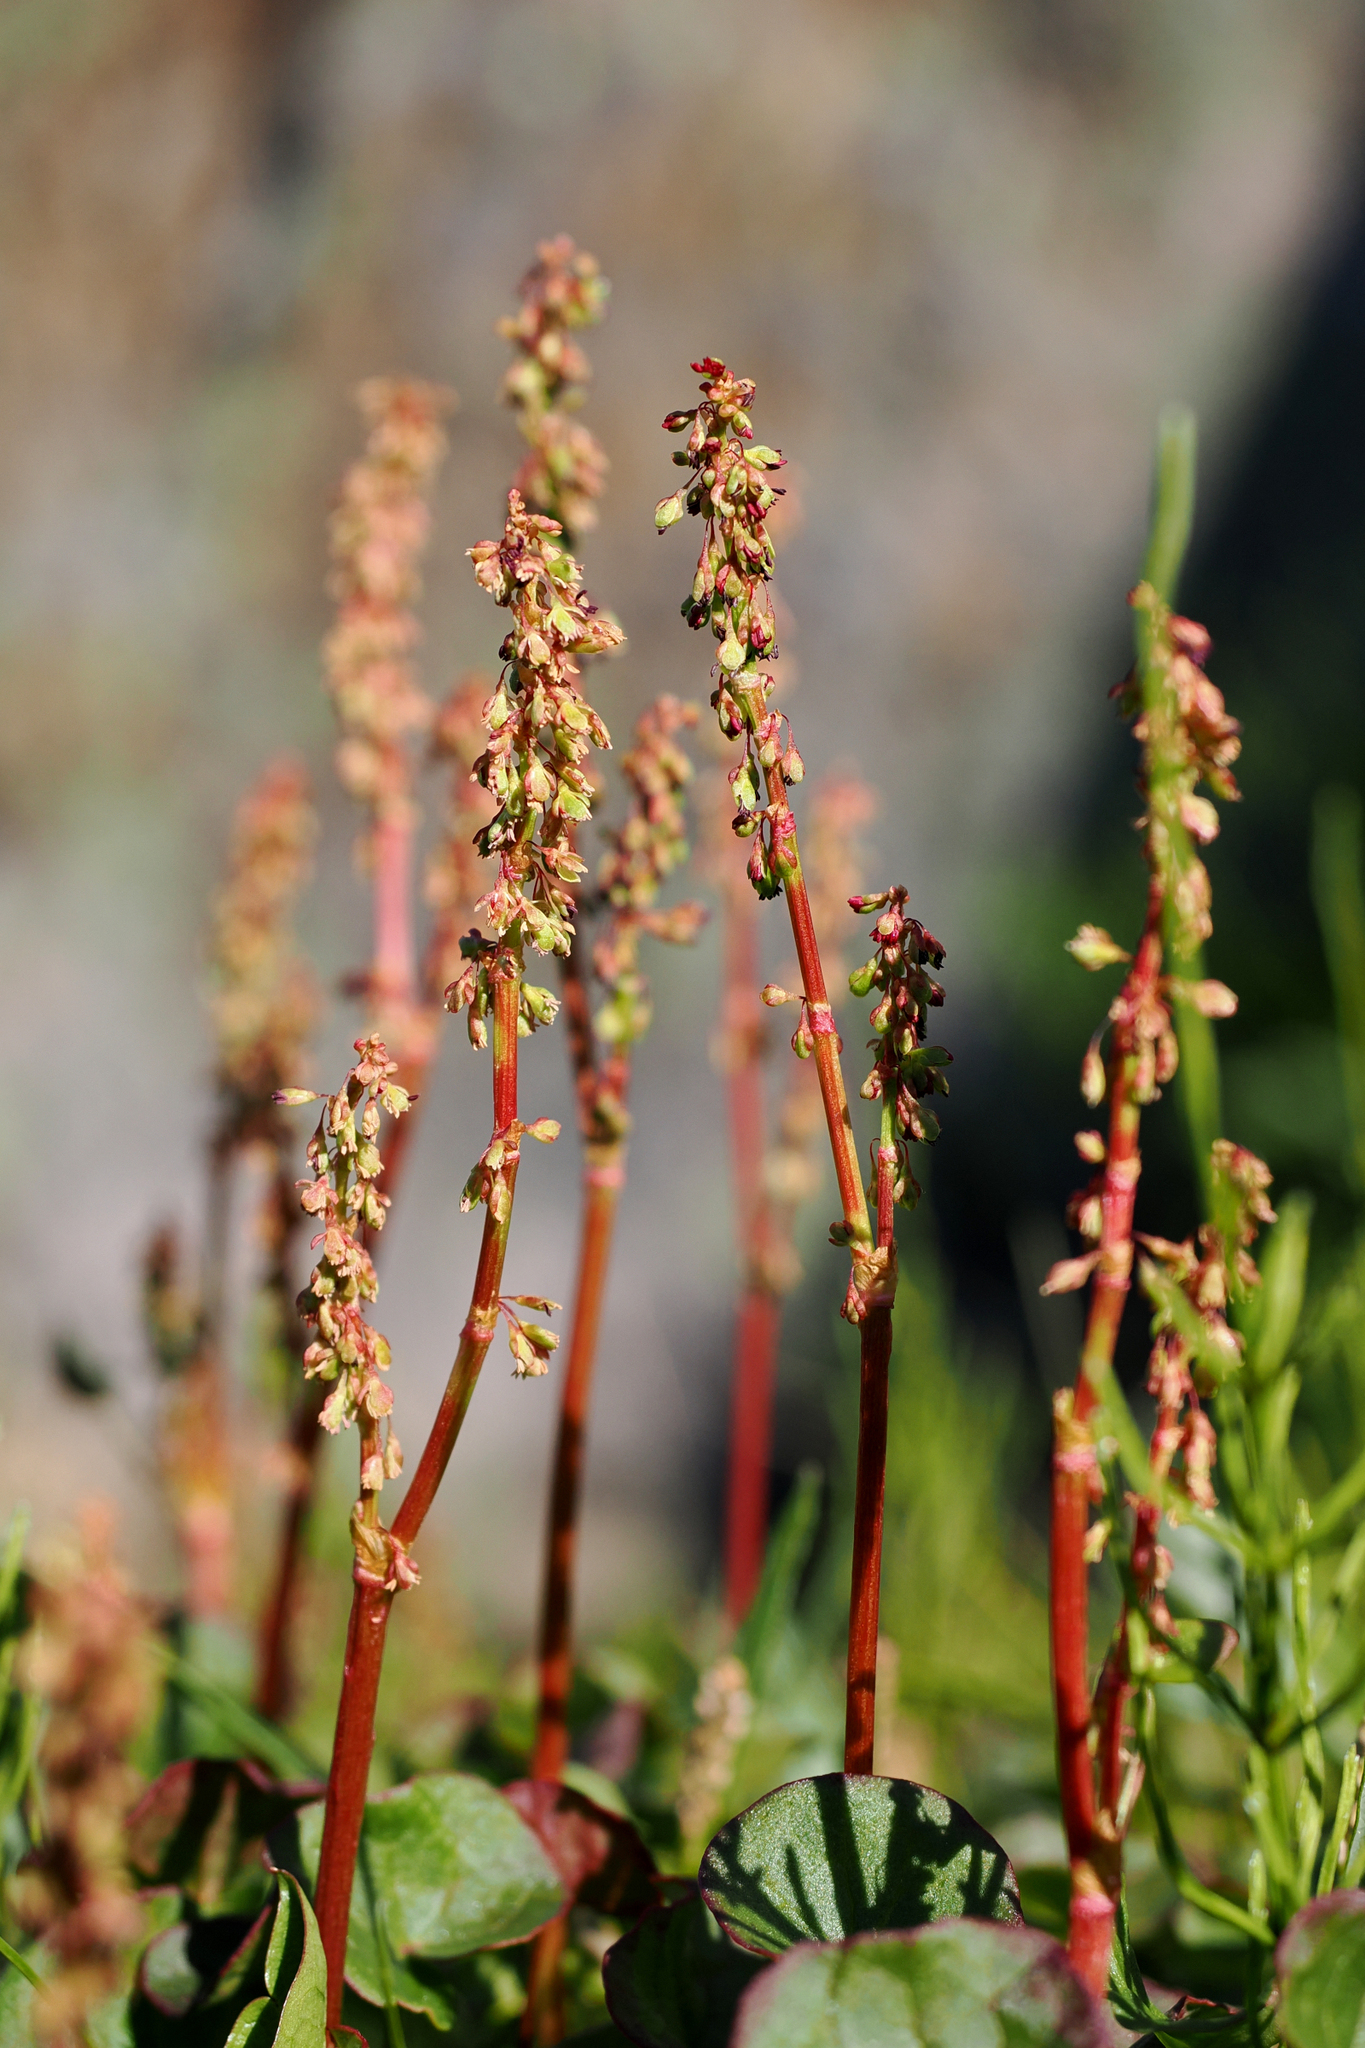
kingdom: Plantae
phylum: Tracheophyta
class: Magnoliopsida
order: Caryophyllales
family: Polygonaceae
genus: Oxyria
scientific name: Oxyria digyna
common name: Alpine mountain-sorrel
